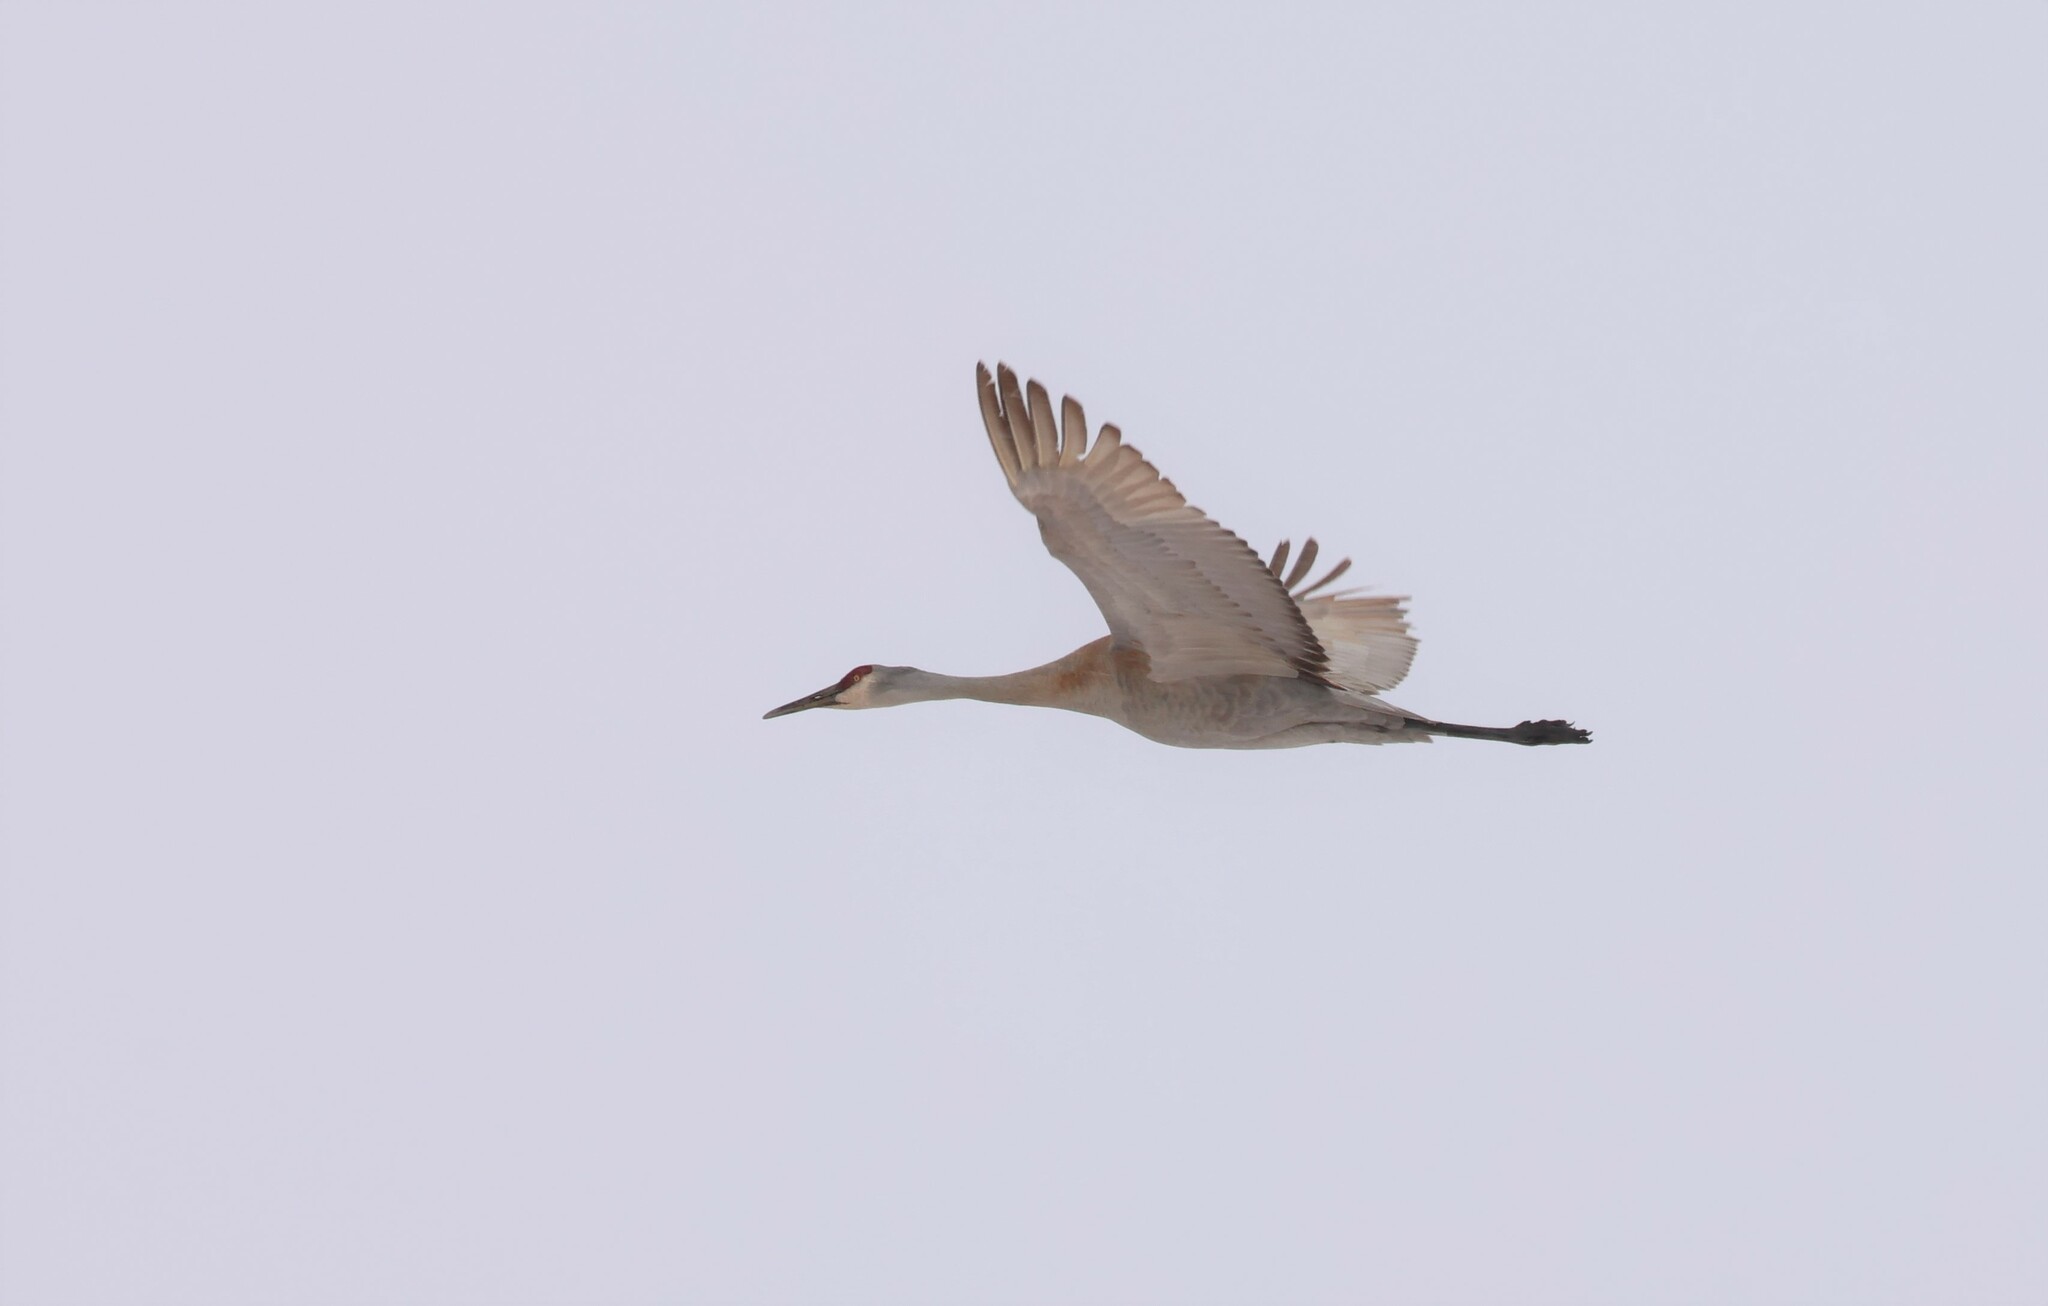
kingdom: Animalia
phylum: Chordata
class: Aves
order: Gruiformes
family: Gruidae
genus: Grus
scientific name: Grus canadensis
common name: Sandhill crane
